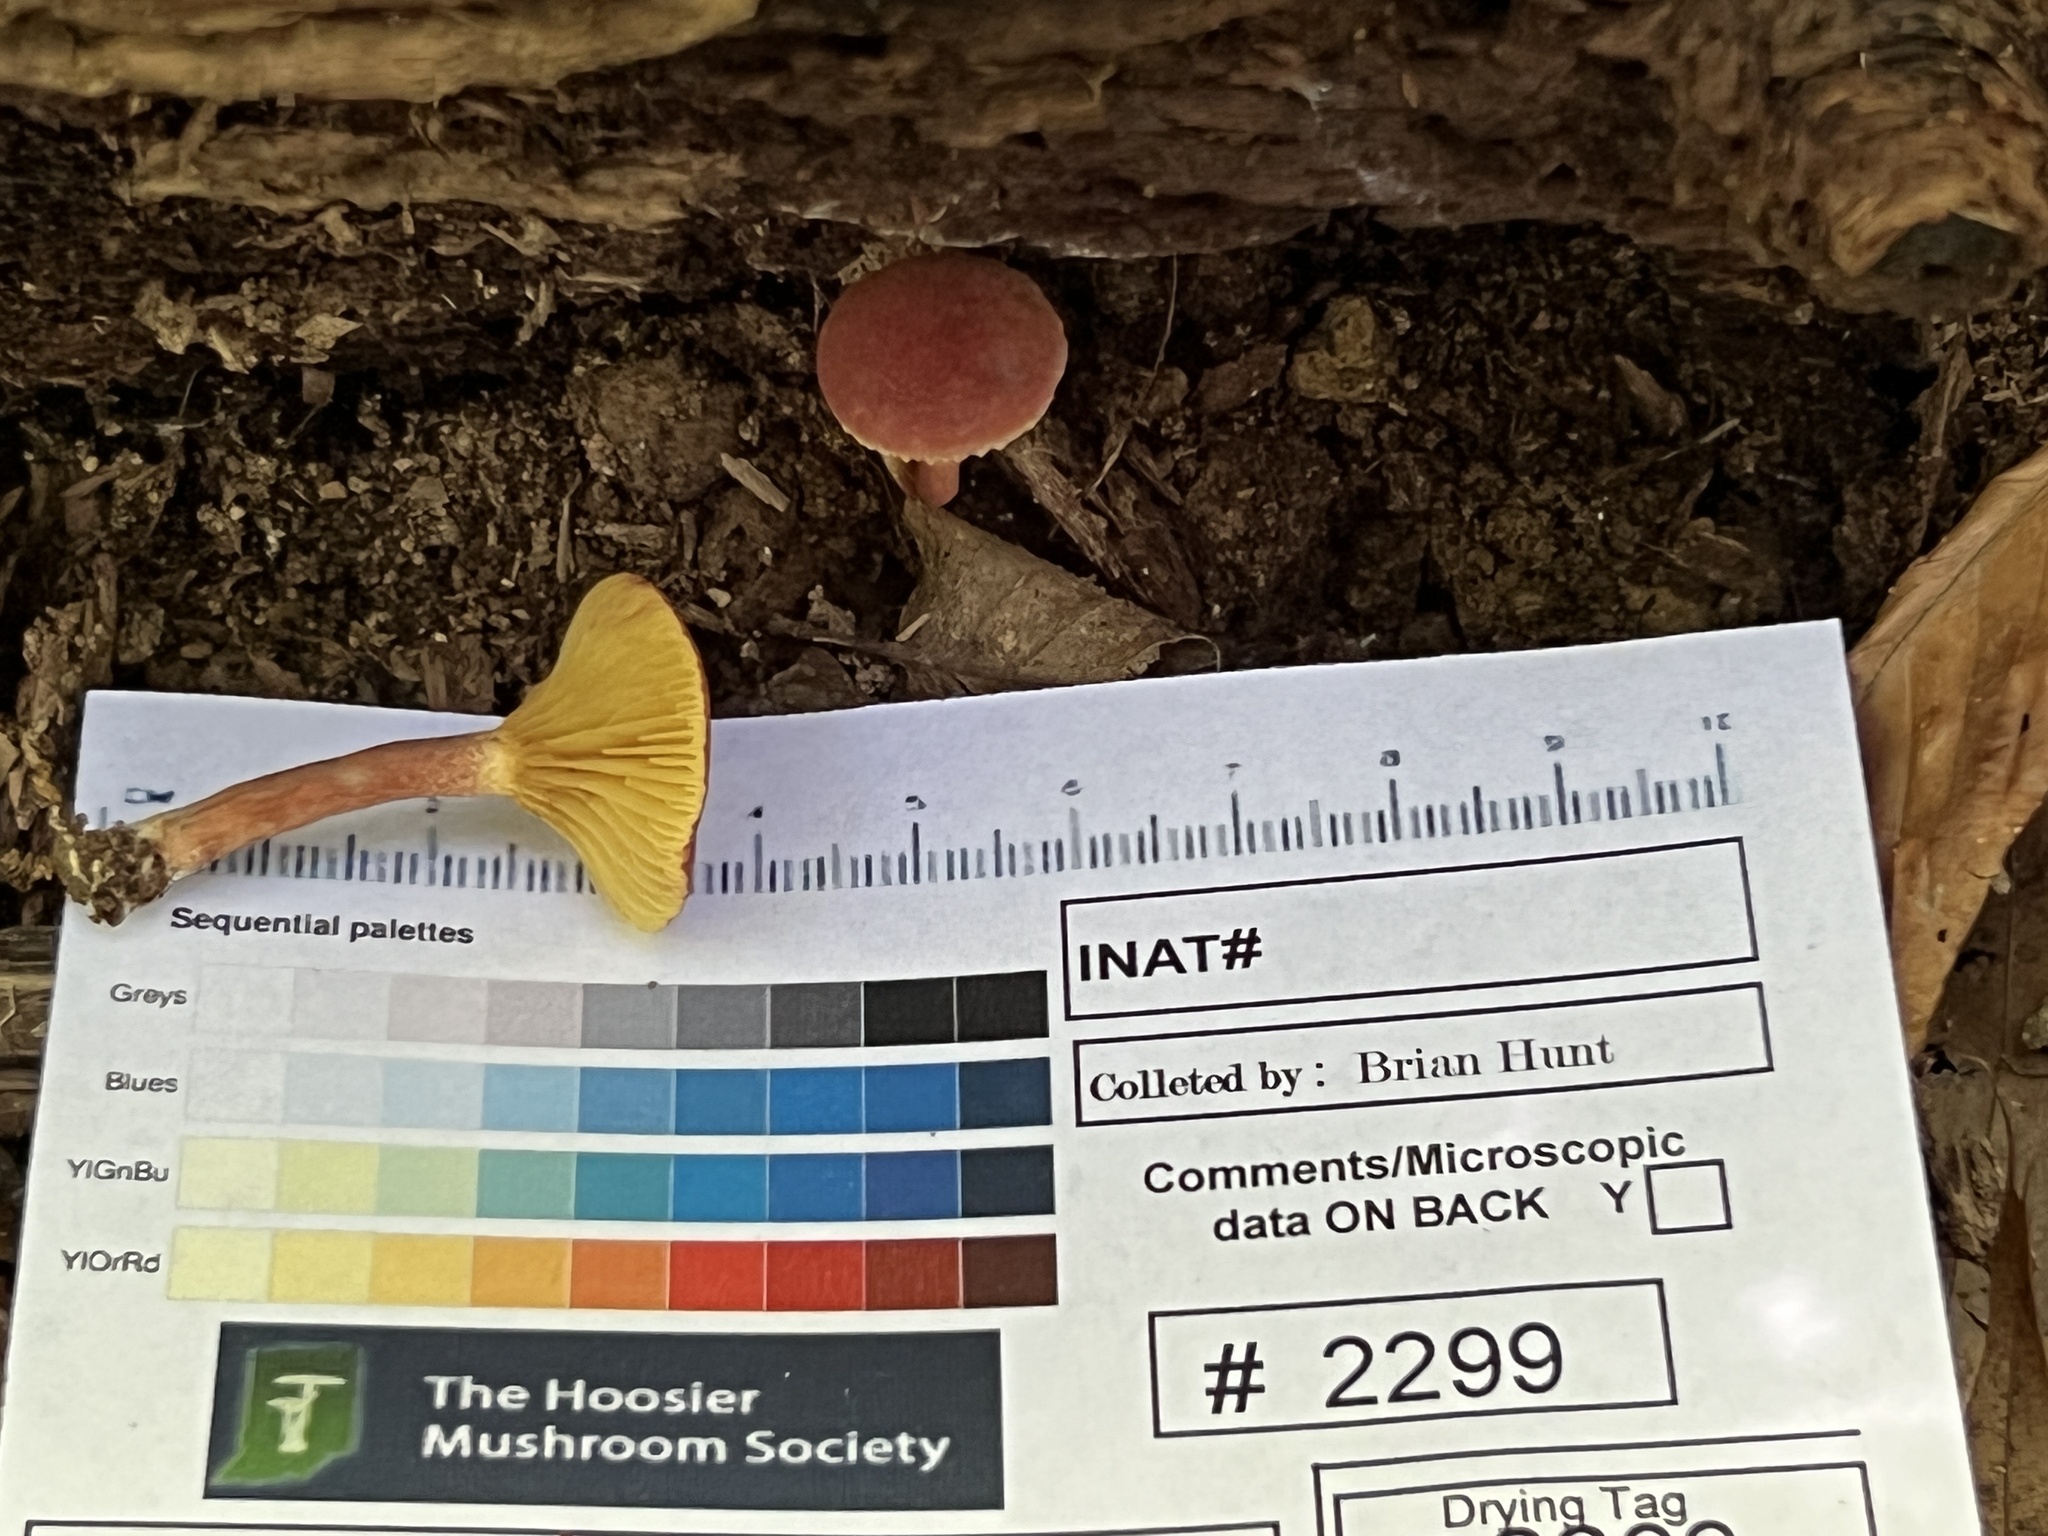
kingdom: Fungi
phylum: Basidiomycota
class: Agaricomycetes
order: Boletales
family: Boletaceae
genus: Phylloporus
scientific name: Phylloporus bellus
